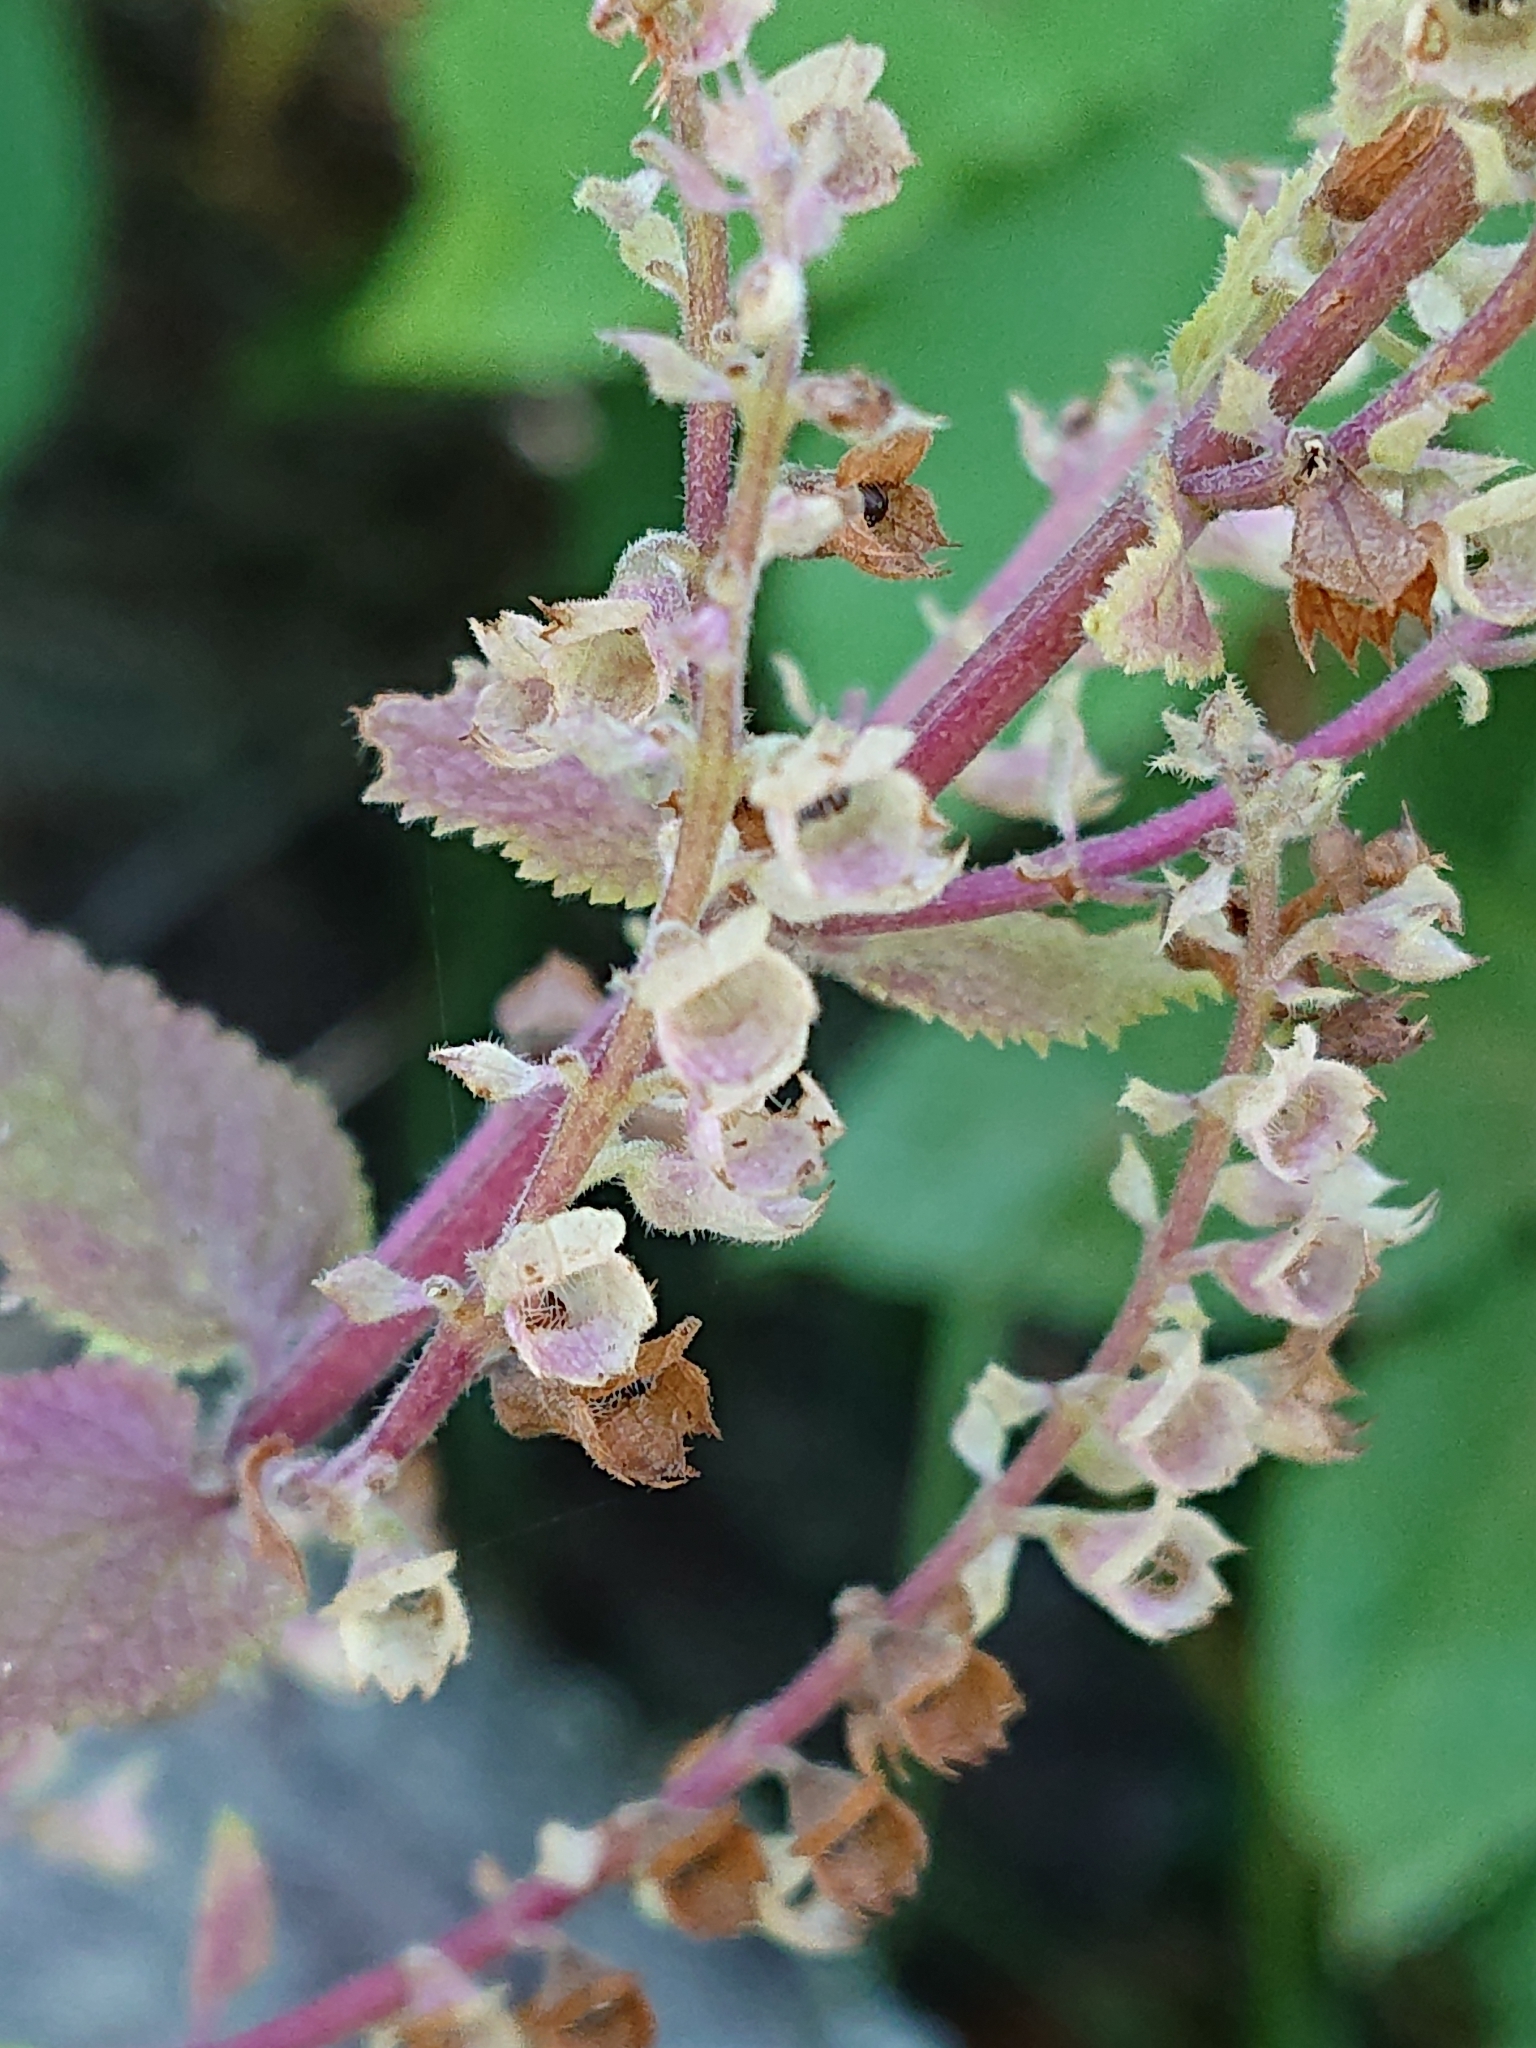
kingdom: Plantae
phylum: Tracheophyta
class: Magnoliopsida
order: Lamiales
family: Lamiaceae
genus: Teucrium
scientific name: Teucrium scorodonia
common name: Woodland germander
